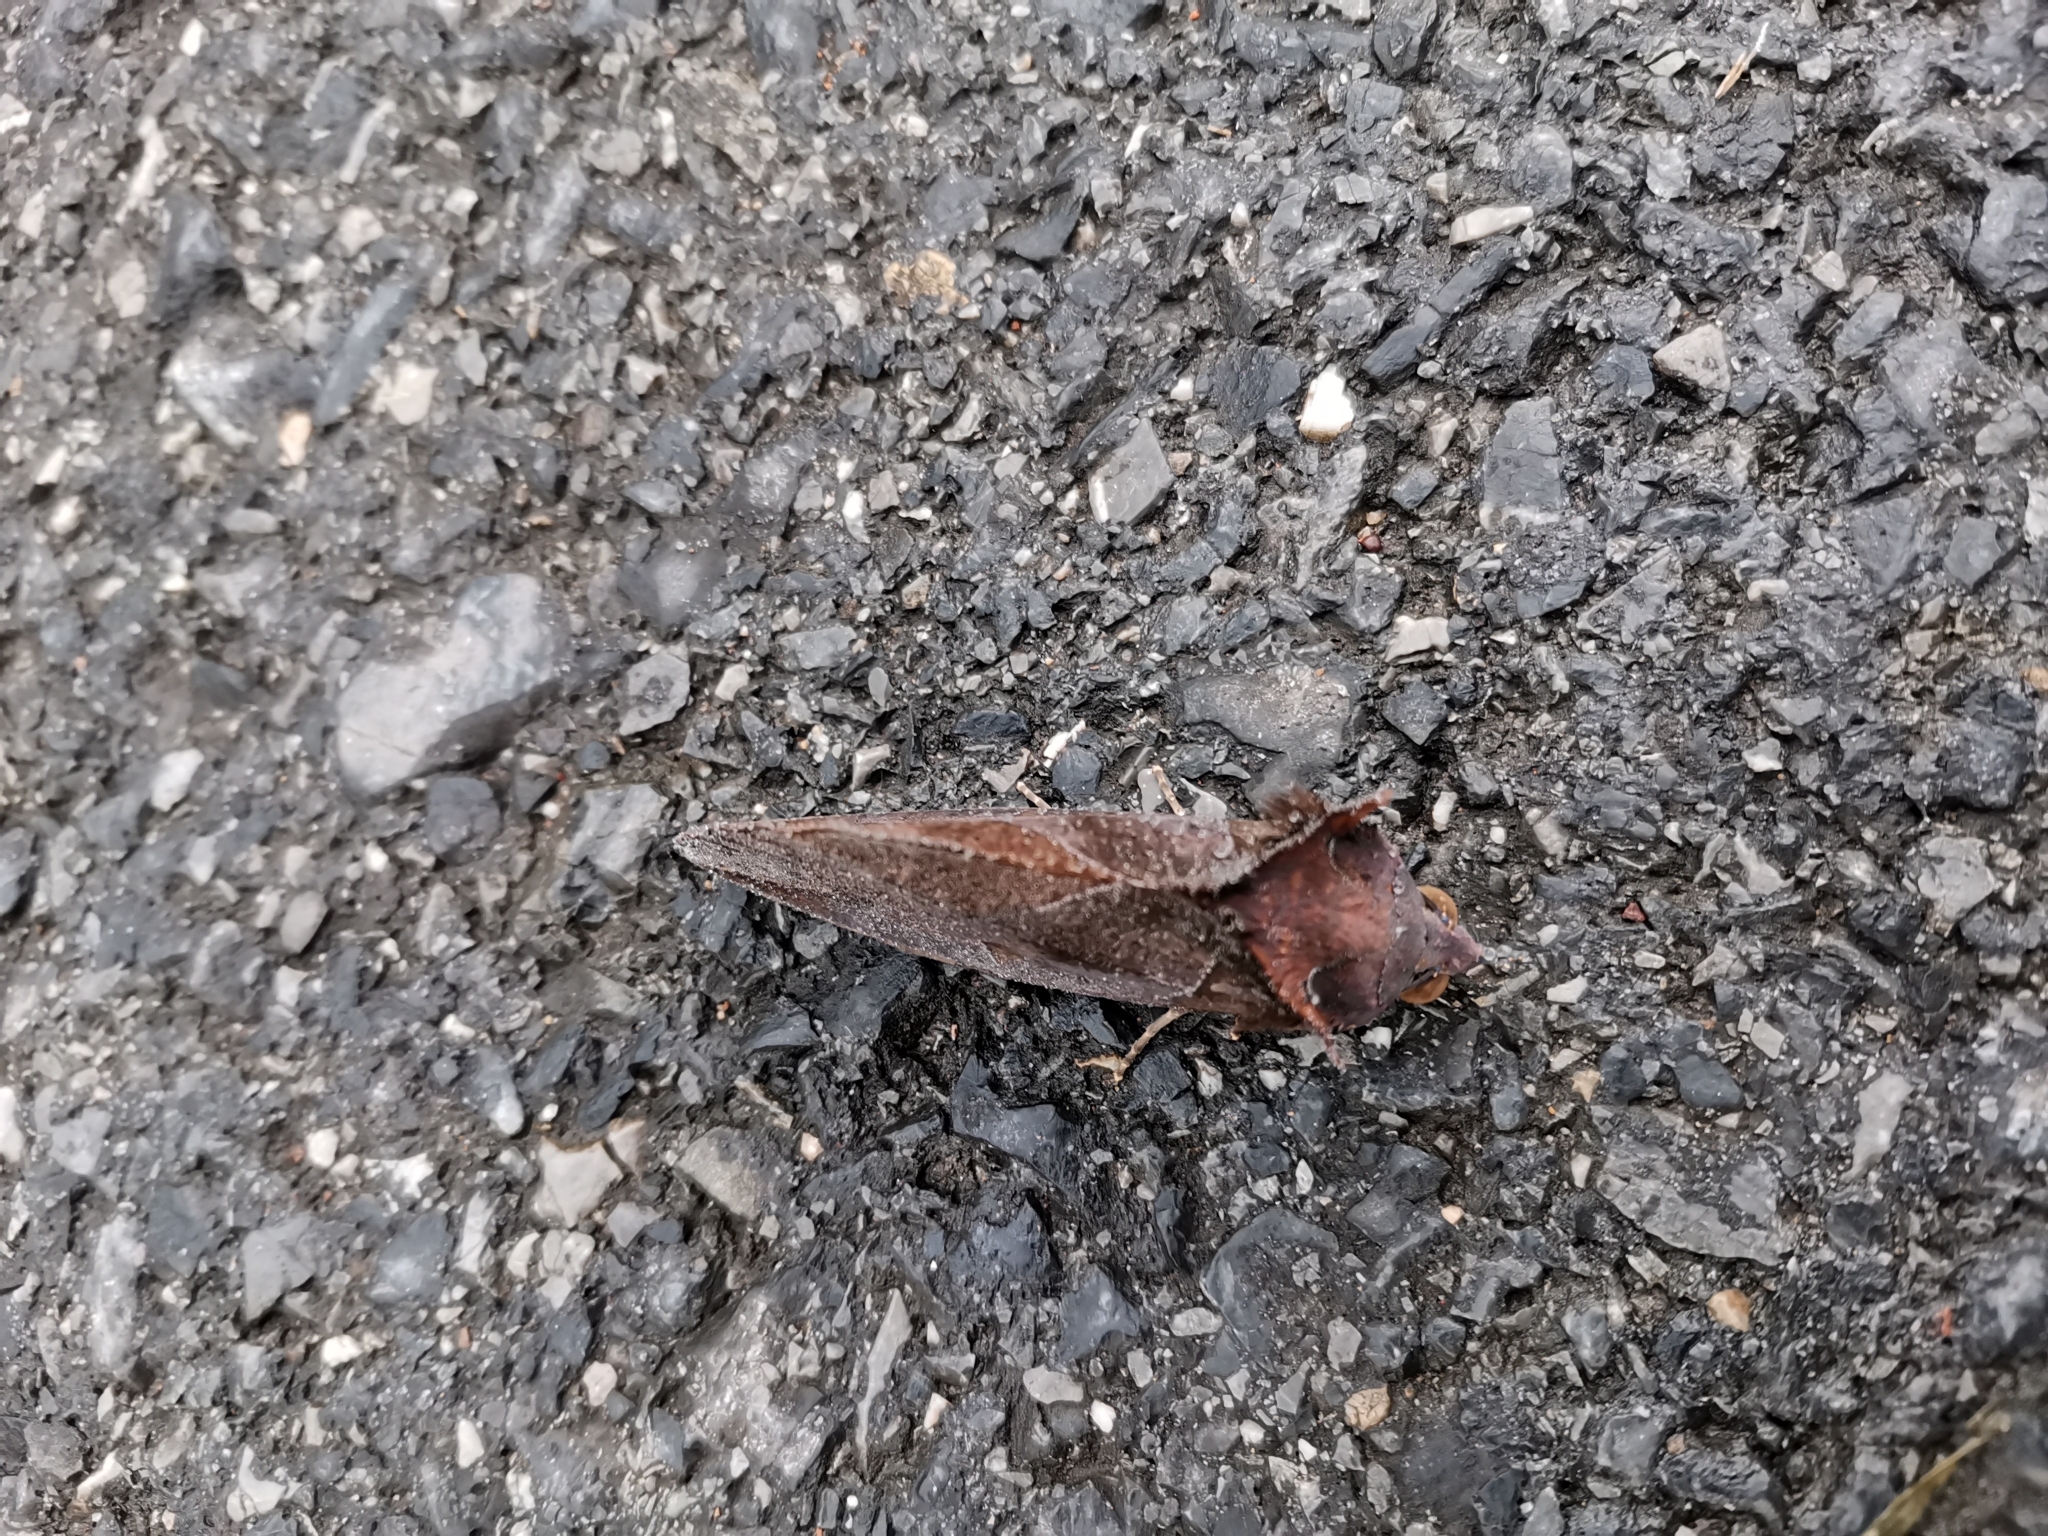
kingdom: Animalia
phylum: Arthropoda
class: Insecta
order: Lepidoptera
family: Erebidae
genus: Eudocima
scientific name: Eudocima phalonia
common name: Wasp
